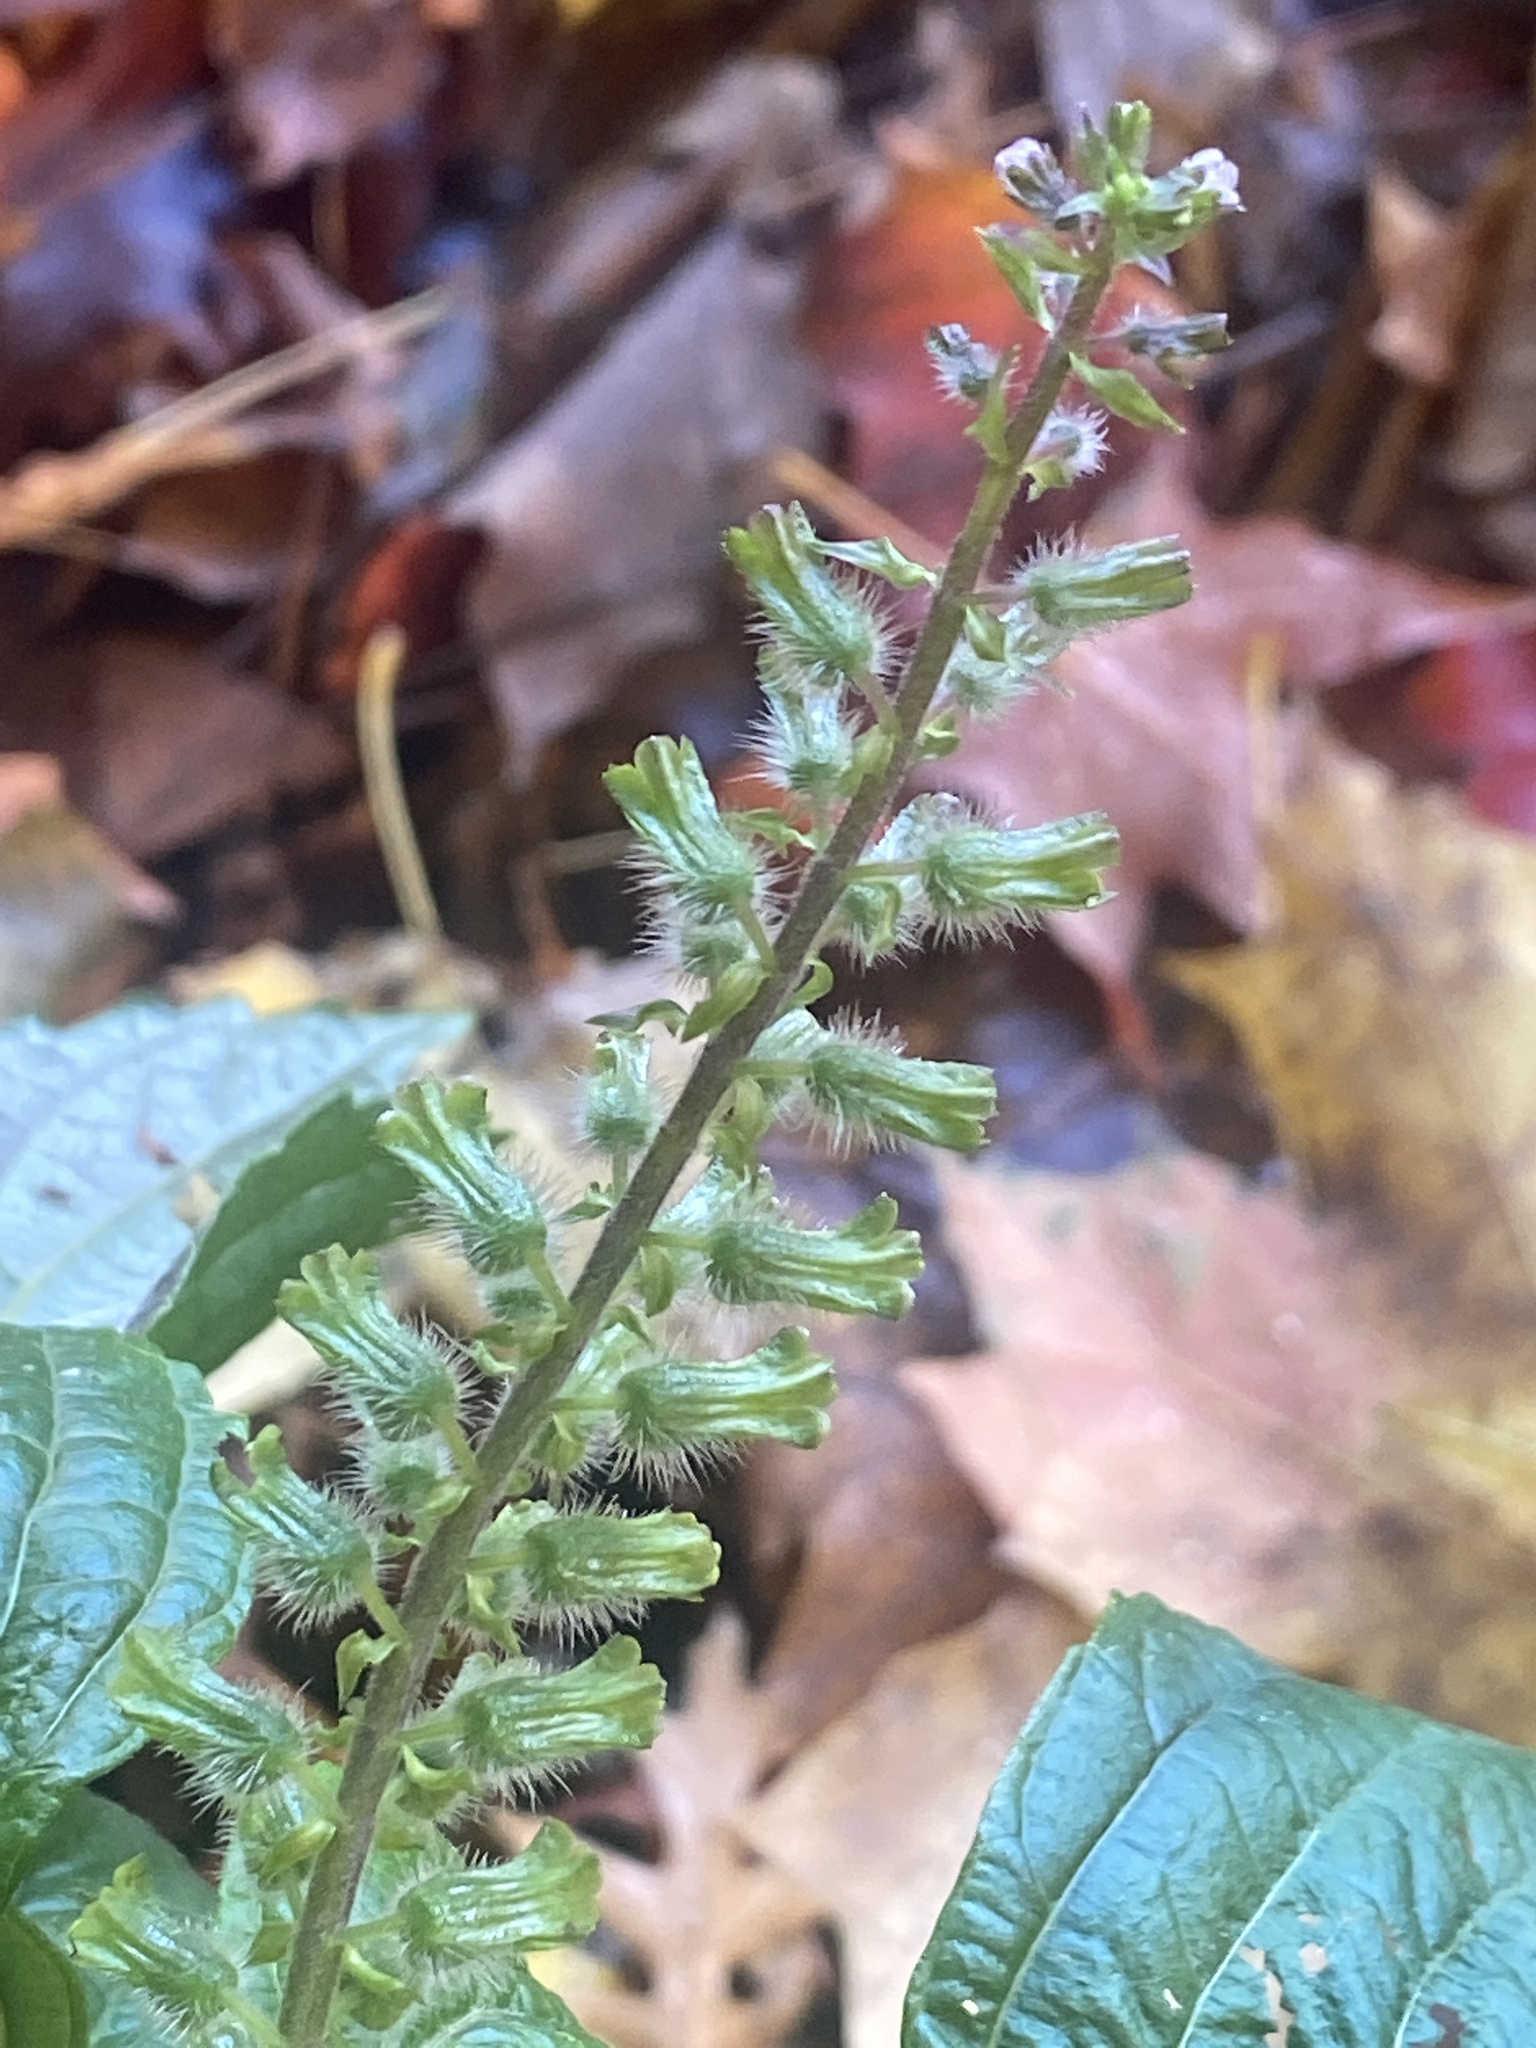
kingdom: Plantae
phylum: Tracheophyta
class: Magnoliopsida
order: Lamiales
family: Lamiaceae
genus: Perilla
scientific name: Perilla frutescens
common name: Perilla
